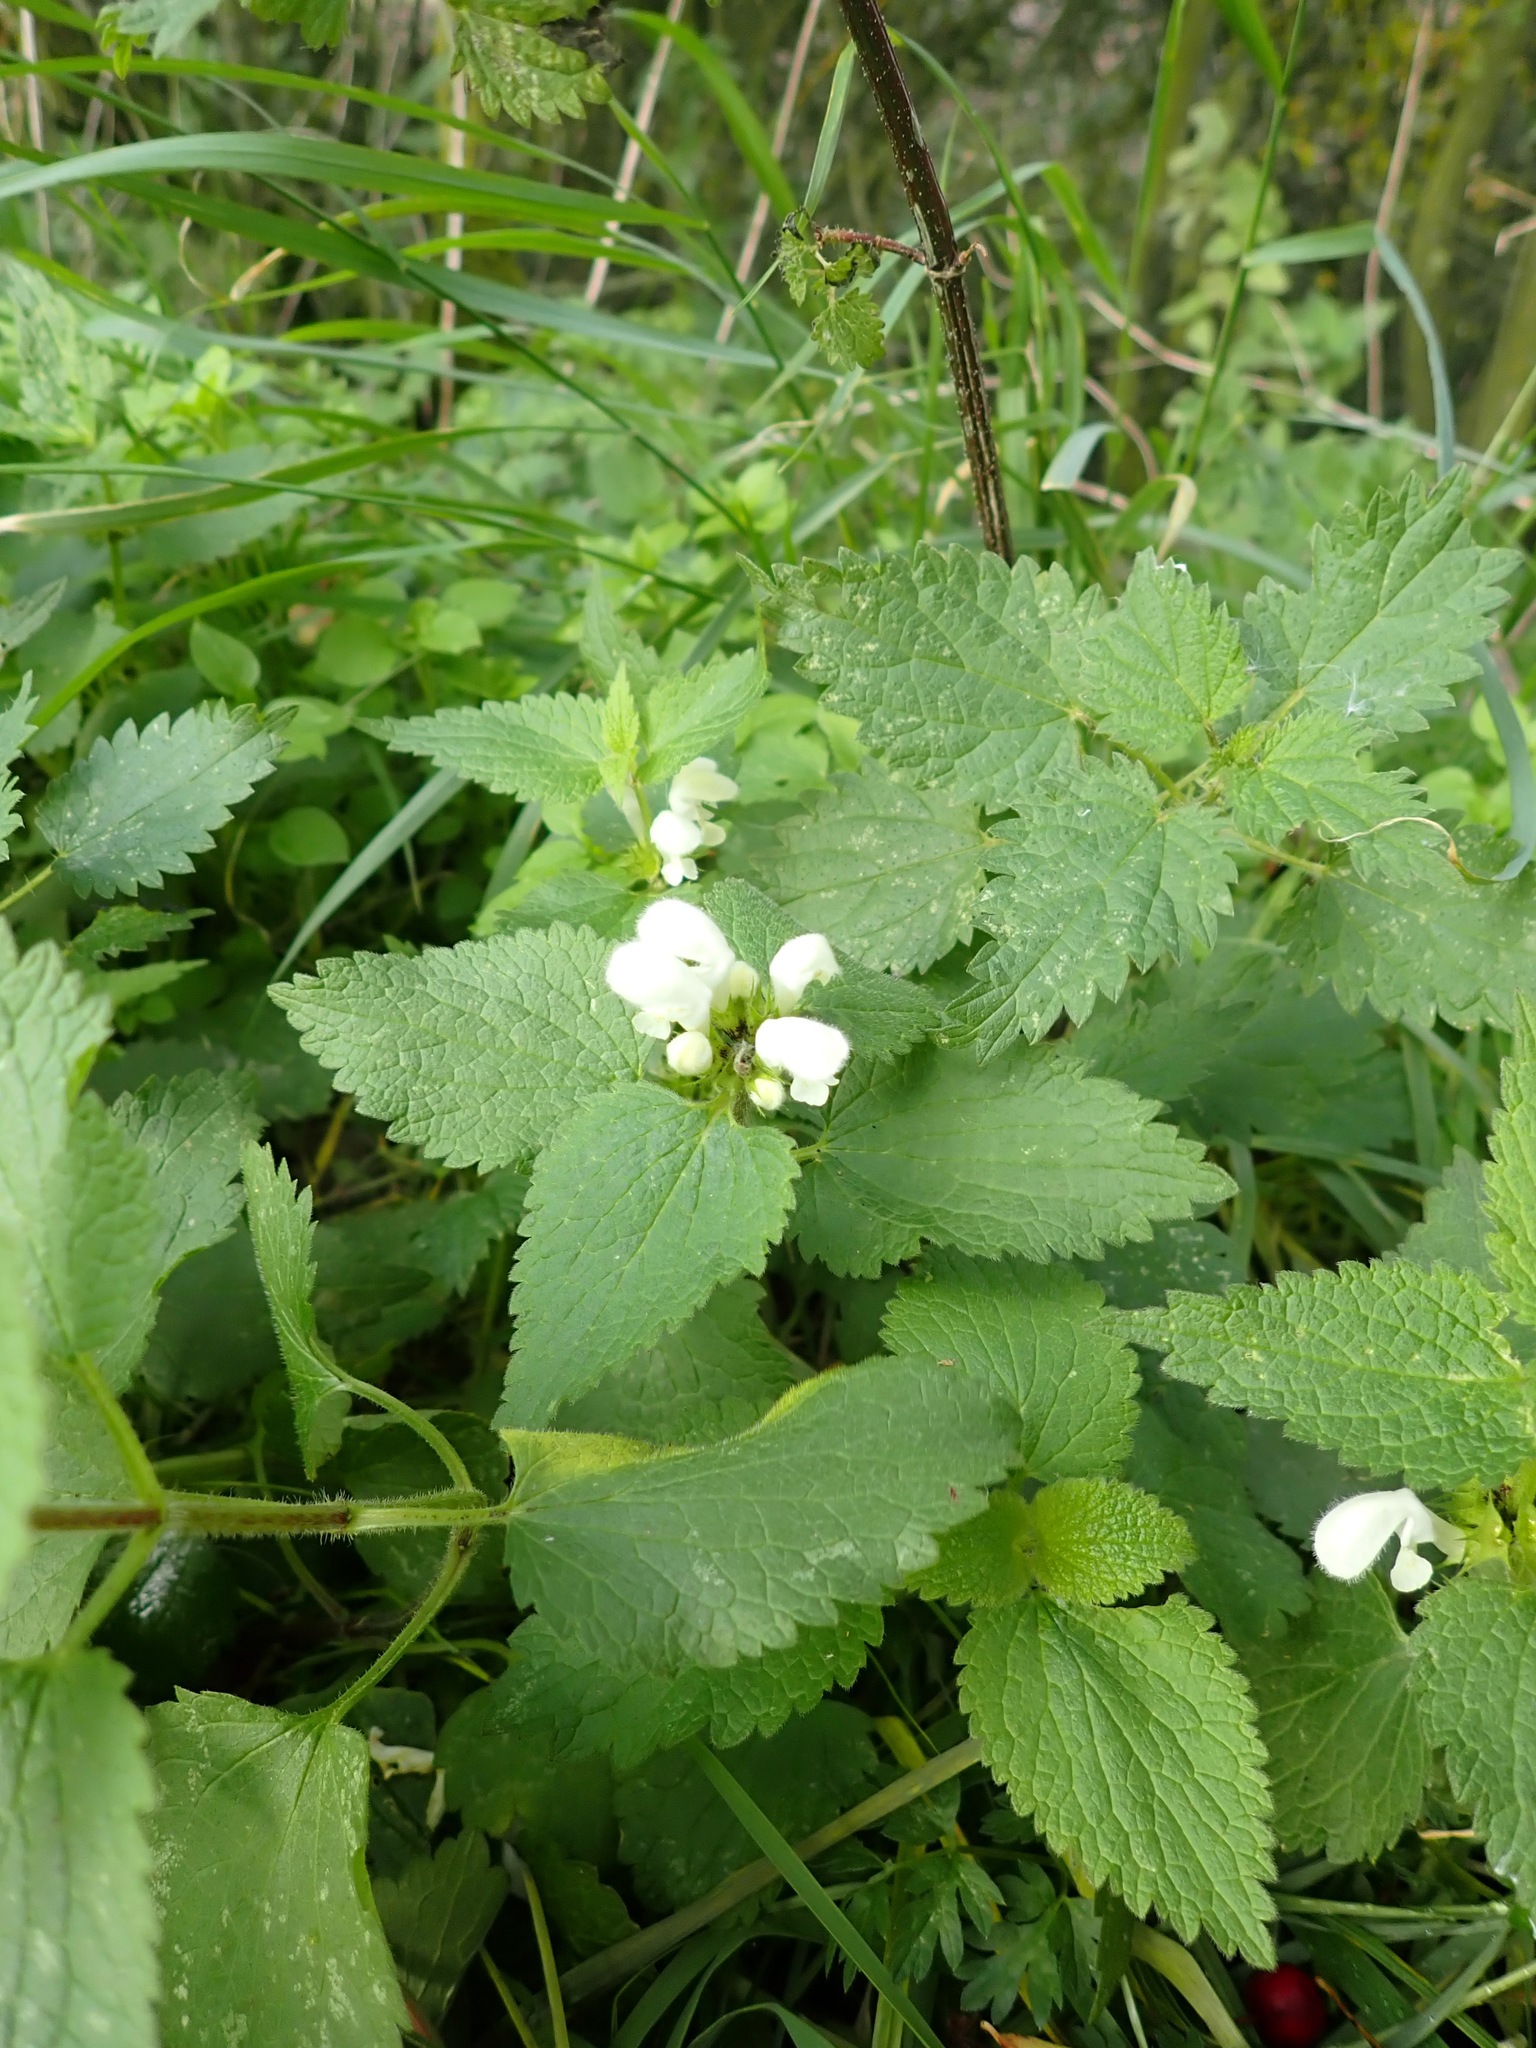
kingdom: Plantae
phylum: Tracheophyta
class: Magnoliopsida
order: Lamiales
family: Lamiaceae
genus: Lamium
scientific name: Lamium album
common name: White dead-nettle
